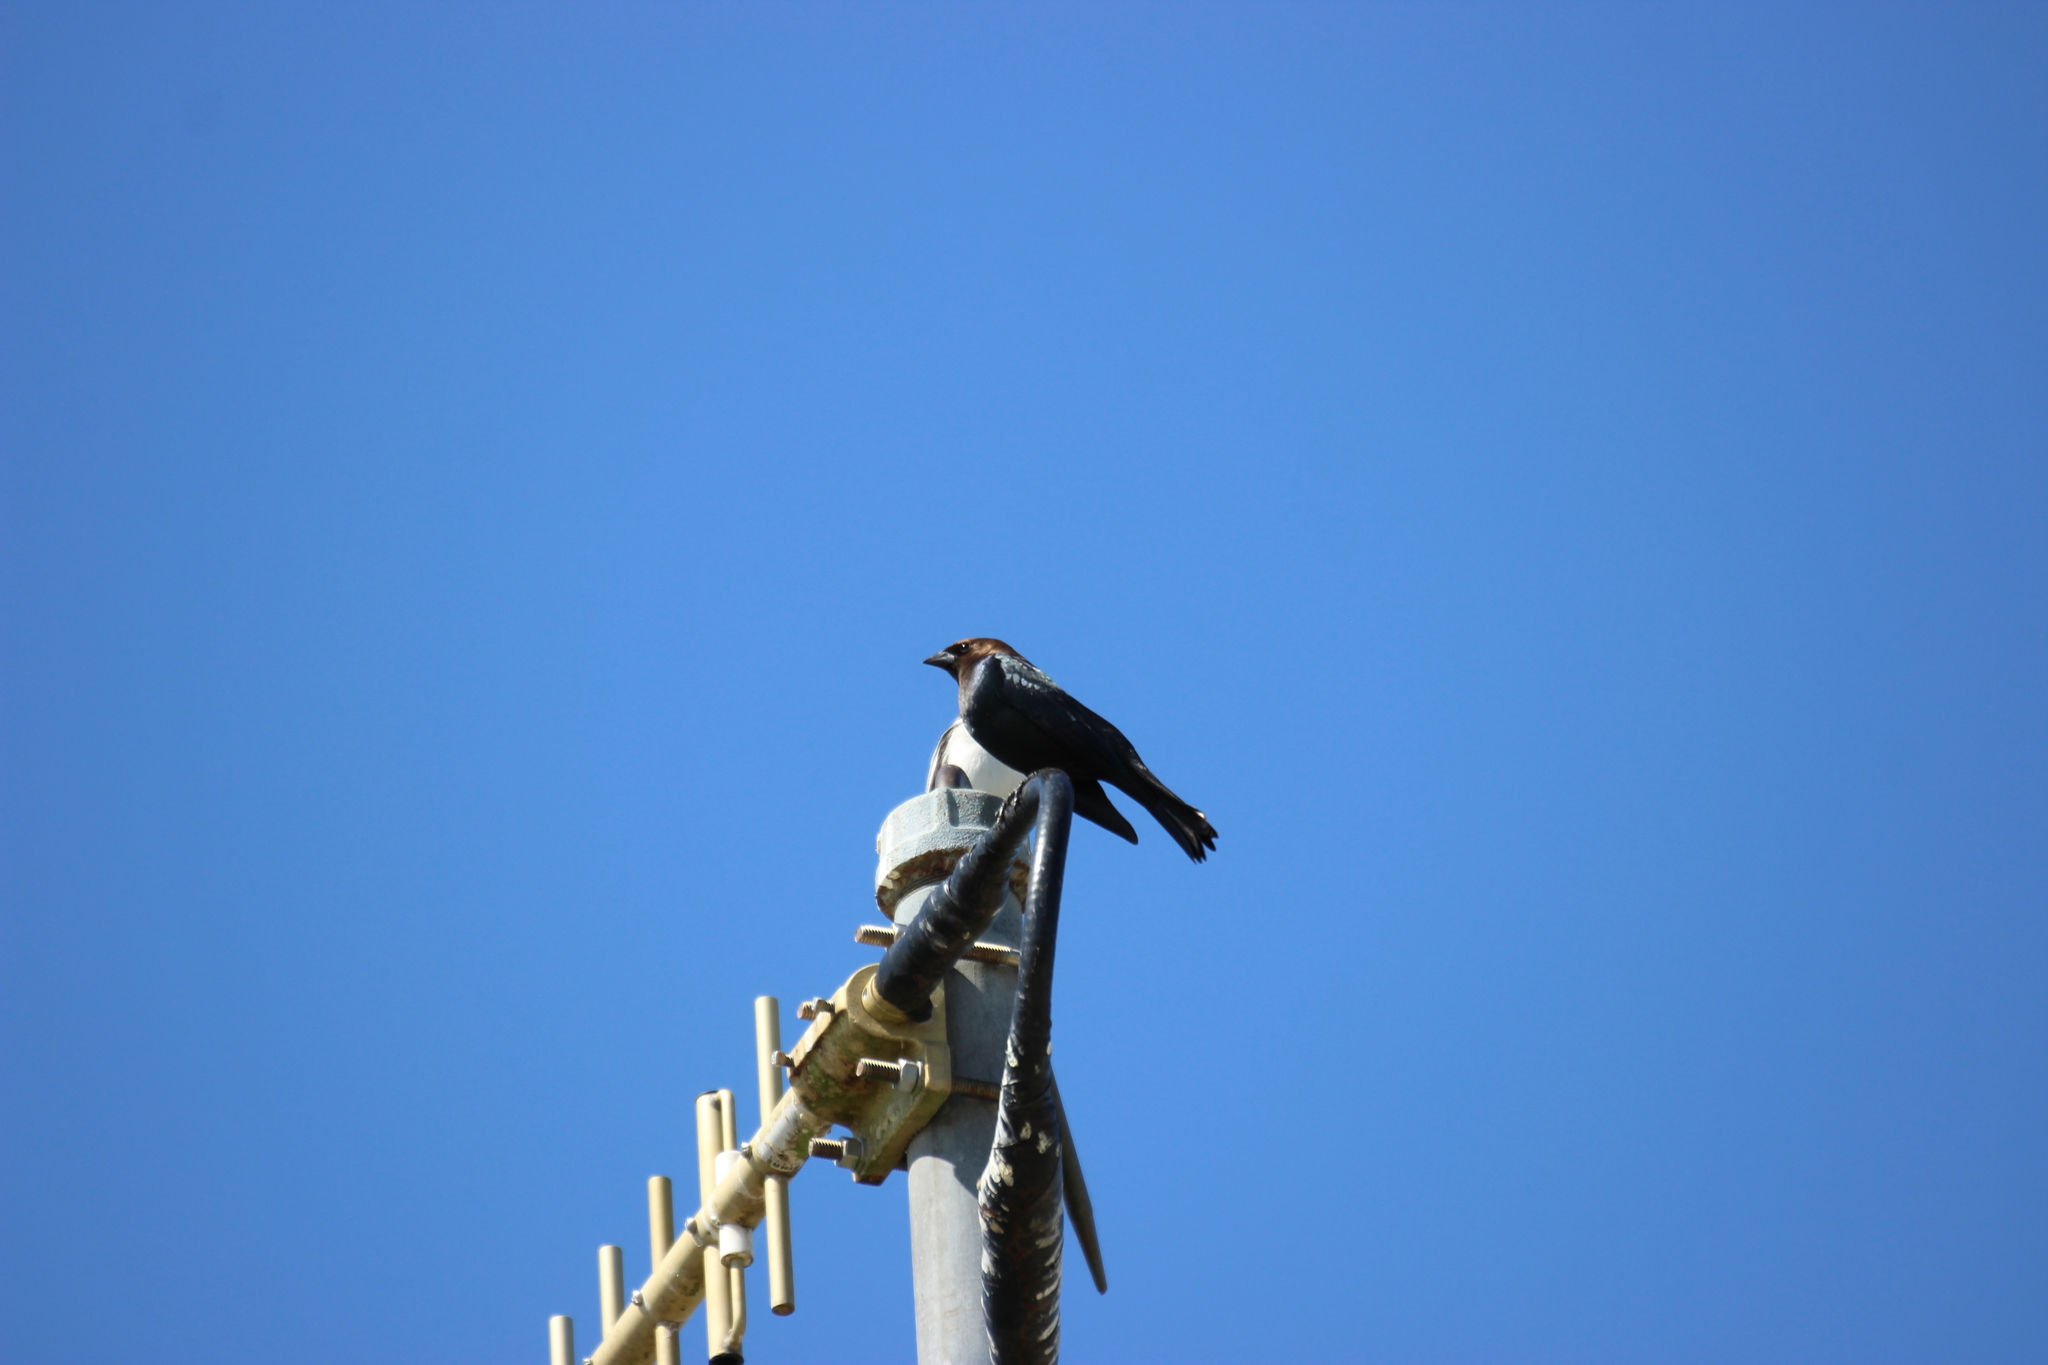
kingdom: Animalia
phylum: Chordata
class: Aves
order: Passeriformes
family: Icteridae
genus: Molothrus
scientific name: Molothrus ater
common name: Brown-headed cowbird
